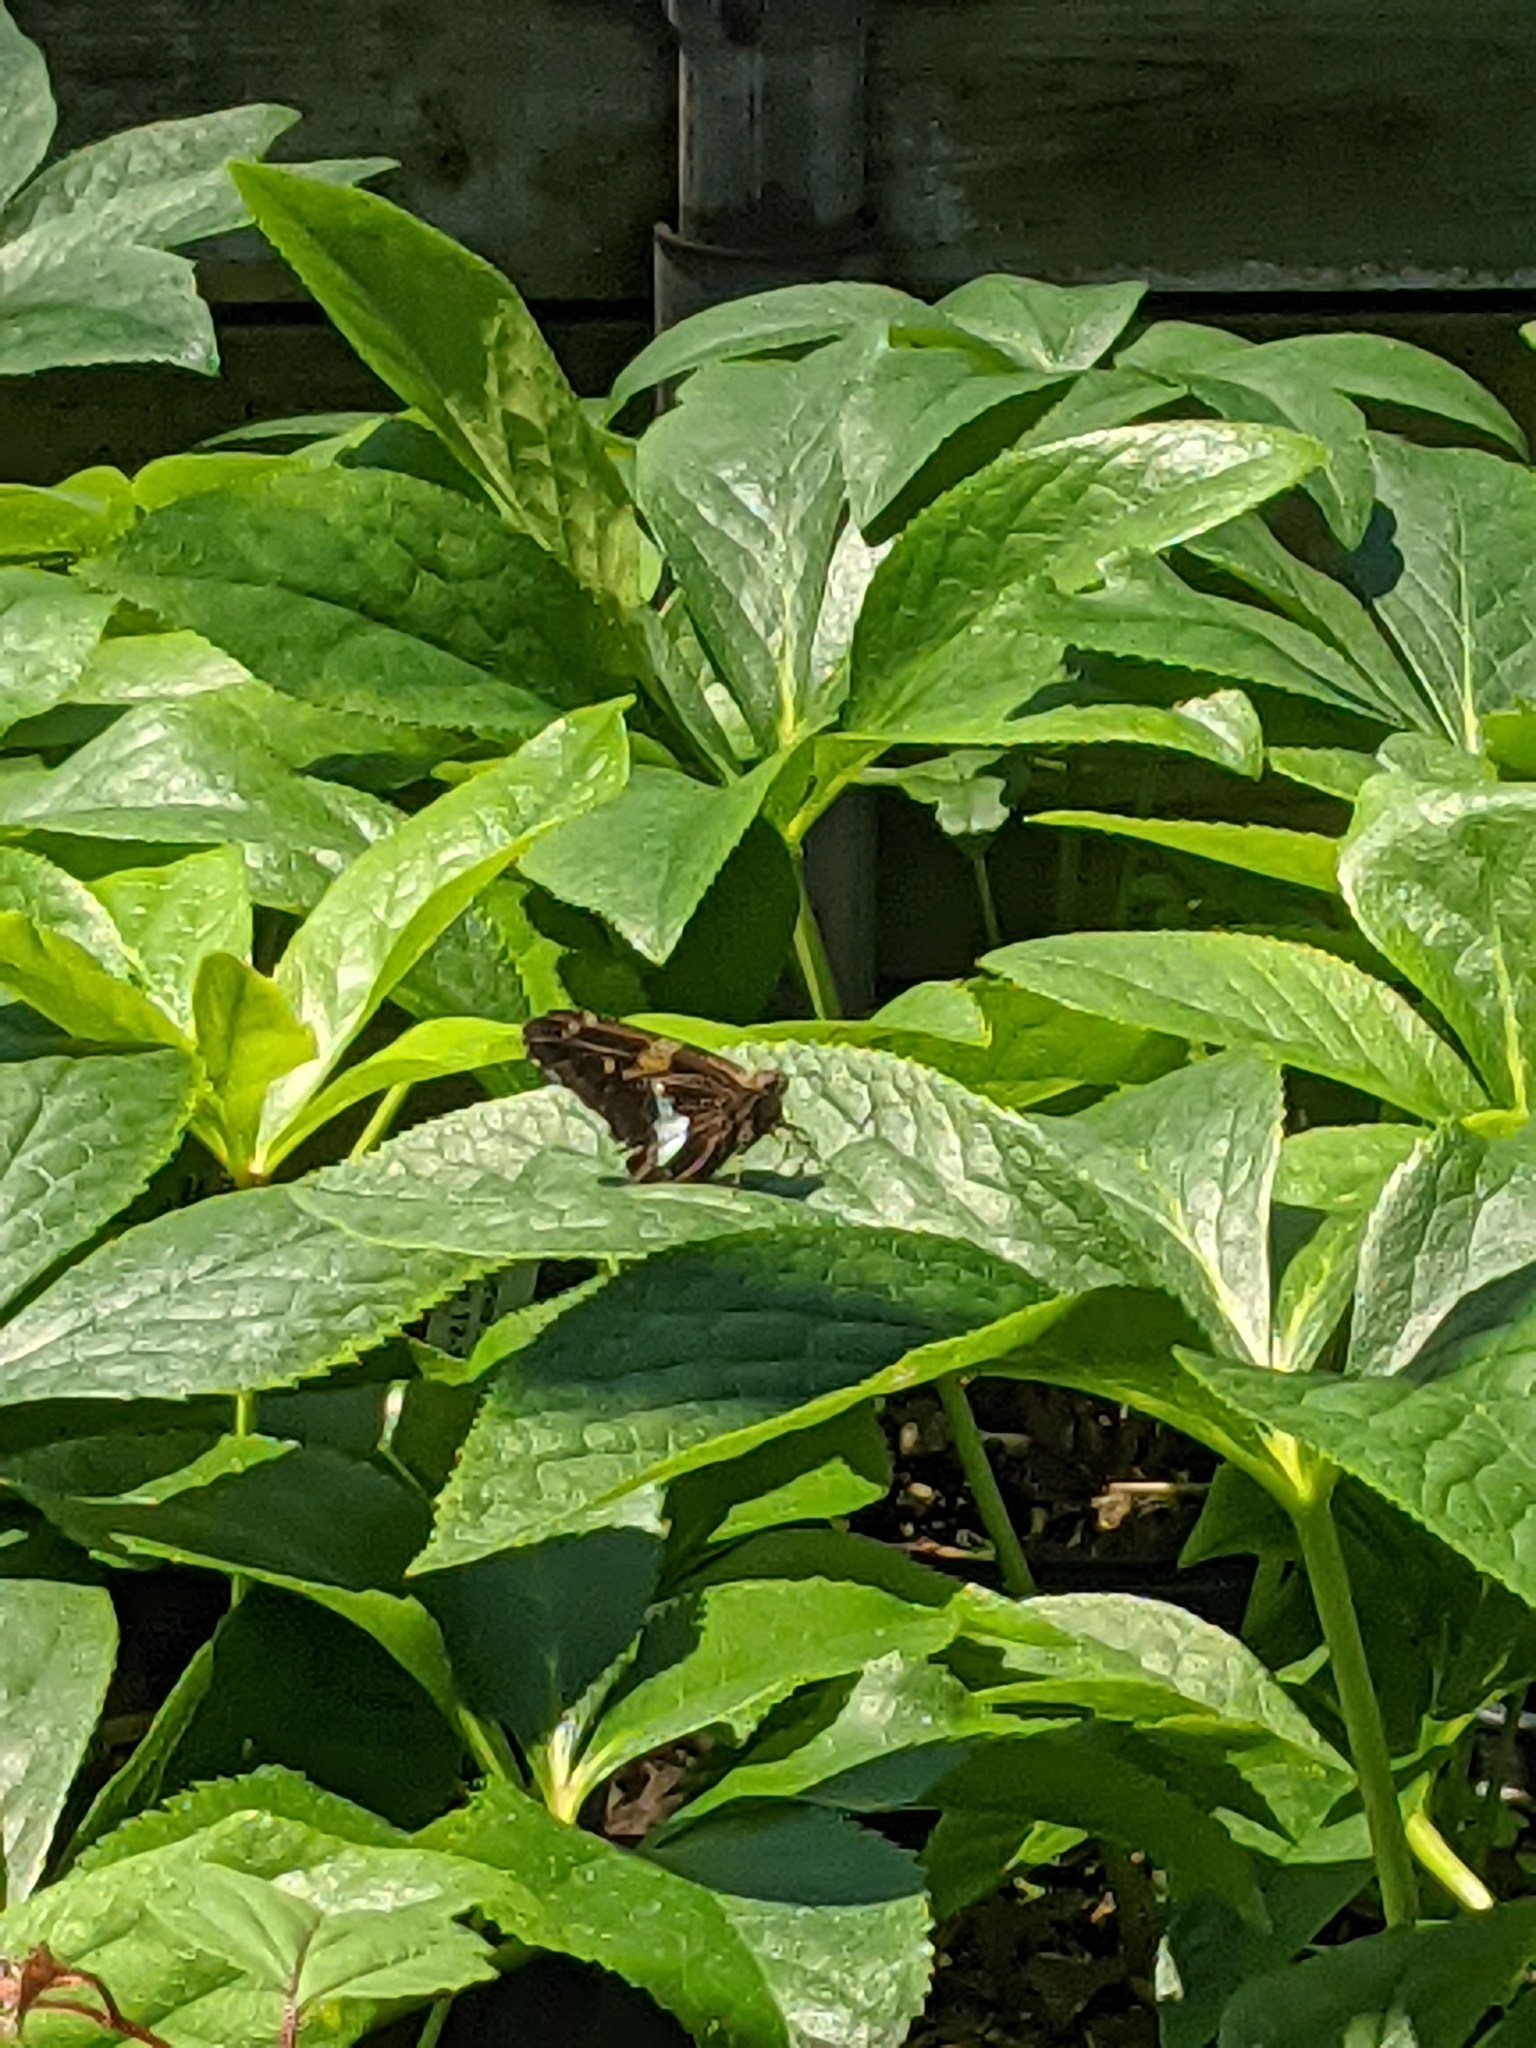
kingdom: Animalia
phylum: Arthropoda
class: Insecta
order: Lepidoptera
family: Hesperiidae
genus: Epargyreus
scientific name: Epargyreus clarus
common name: Silver-spotted skipper
